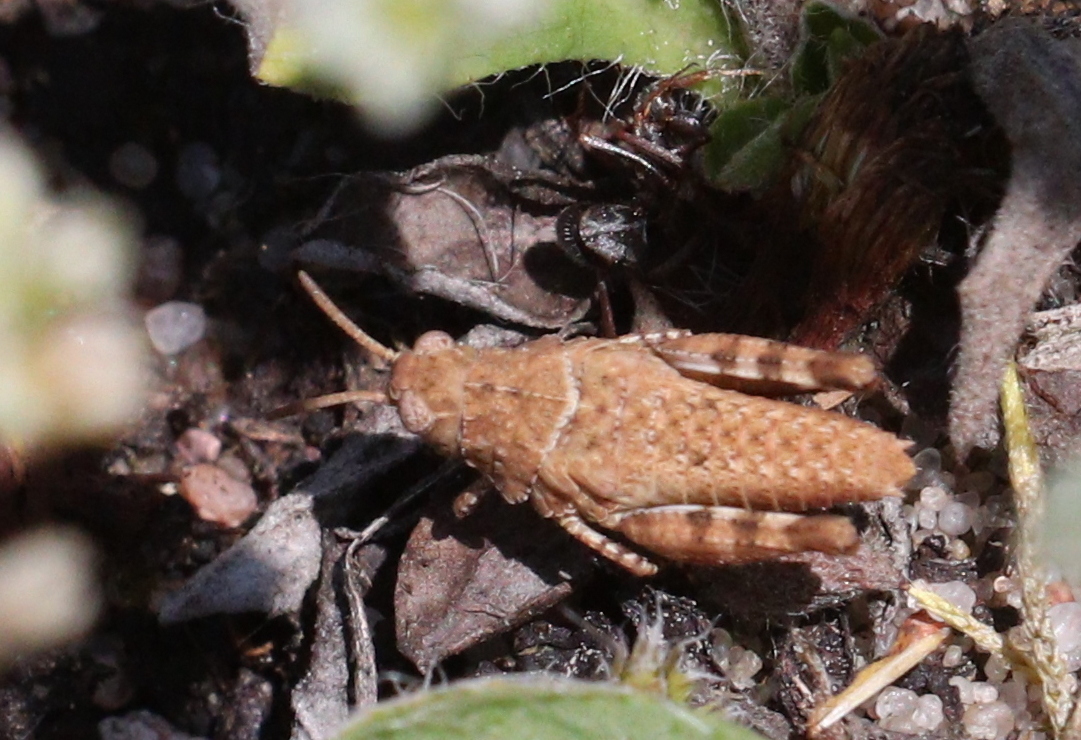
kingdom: Animalia
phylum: Arthropoda
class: Insecta
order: Orthoptera
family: Acrididae
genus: Oedipoda
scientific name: Oedipoda caerulescens
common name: Blue-winged grasshopper
